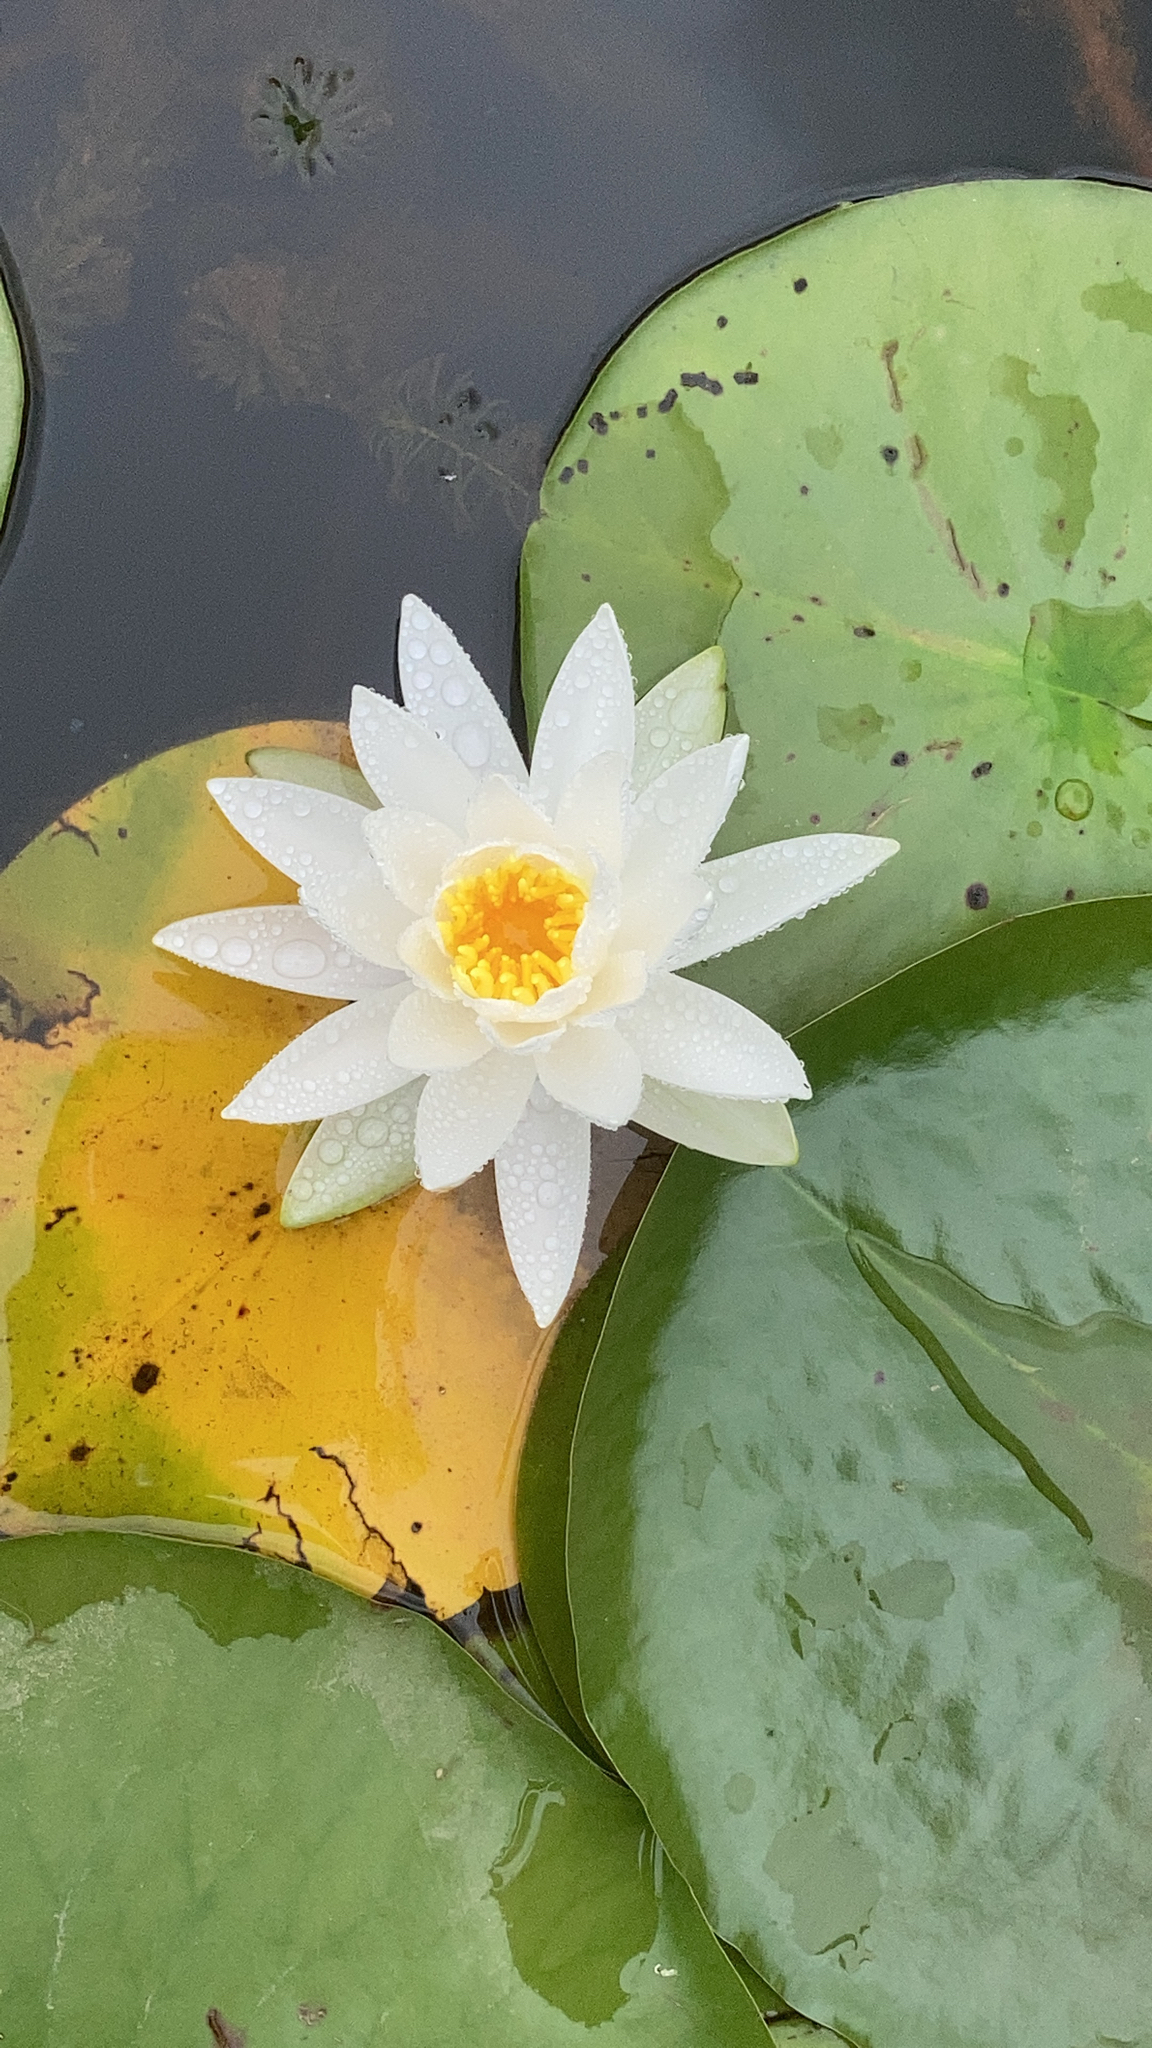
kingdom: Plantae
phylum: Tracheophyta
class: Magnoliopsida
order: Nymphaeales
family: Nymphaeaceae
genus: Nymphaea
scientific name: Nymphaea odorata
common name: Fragrant water-lily
